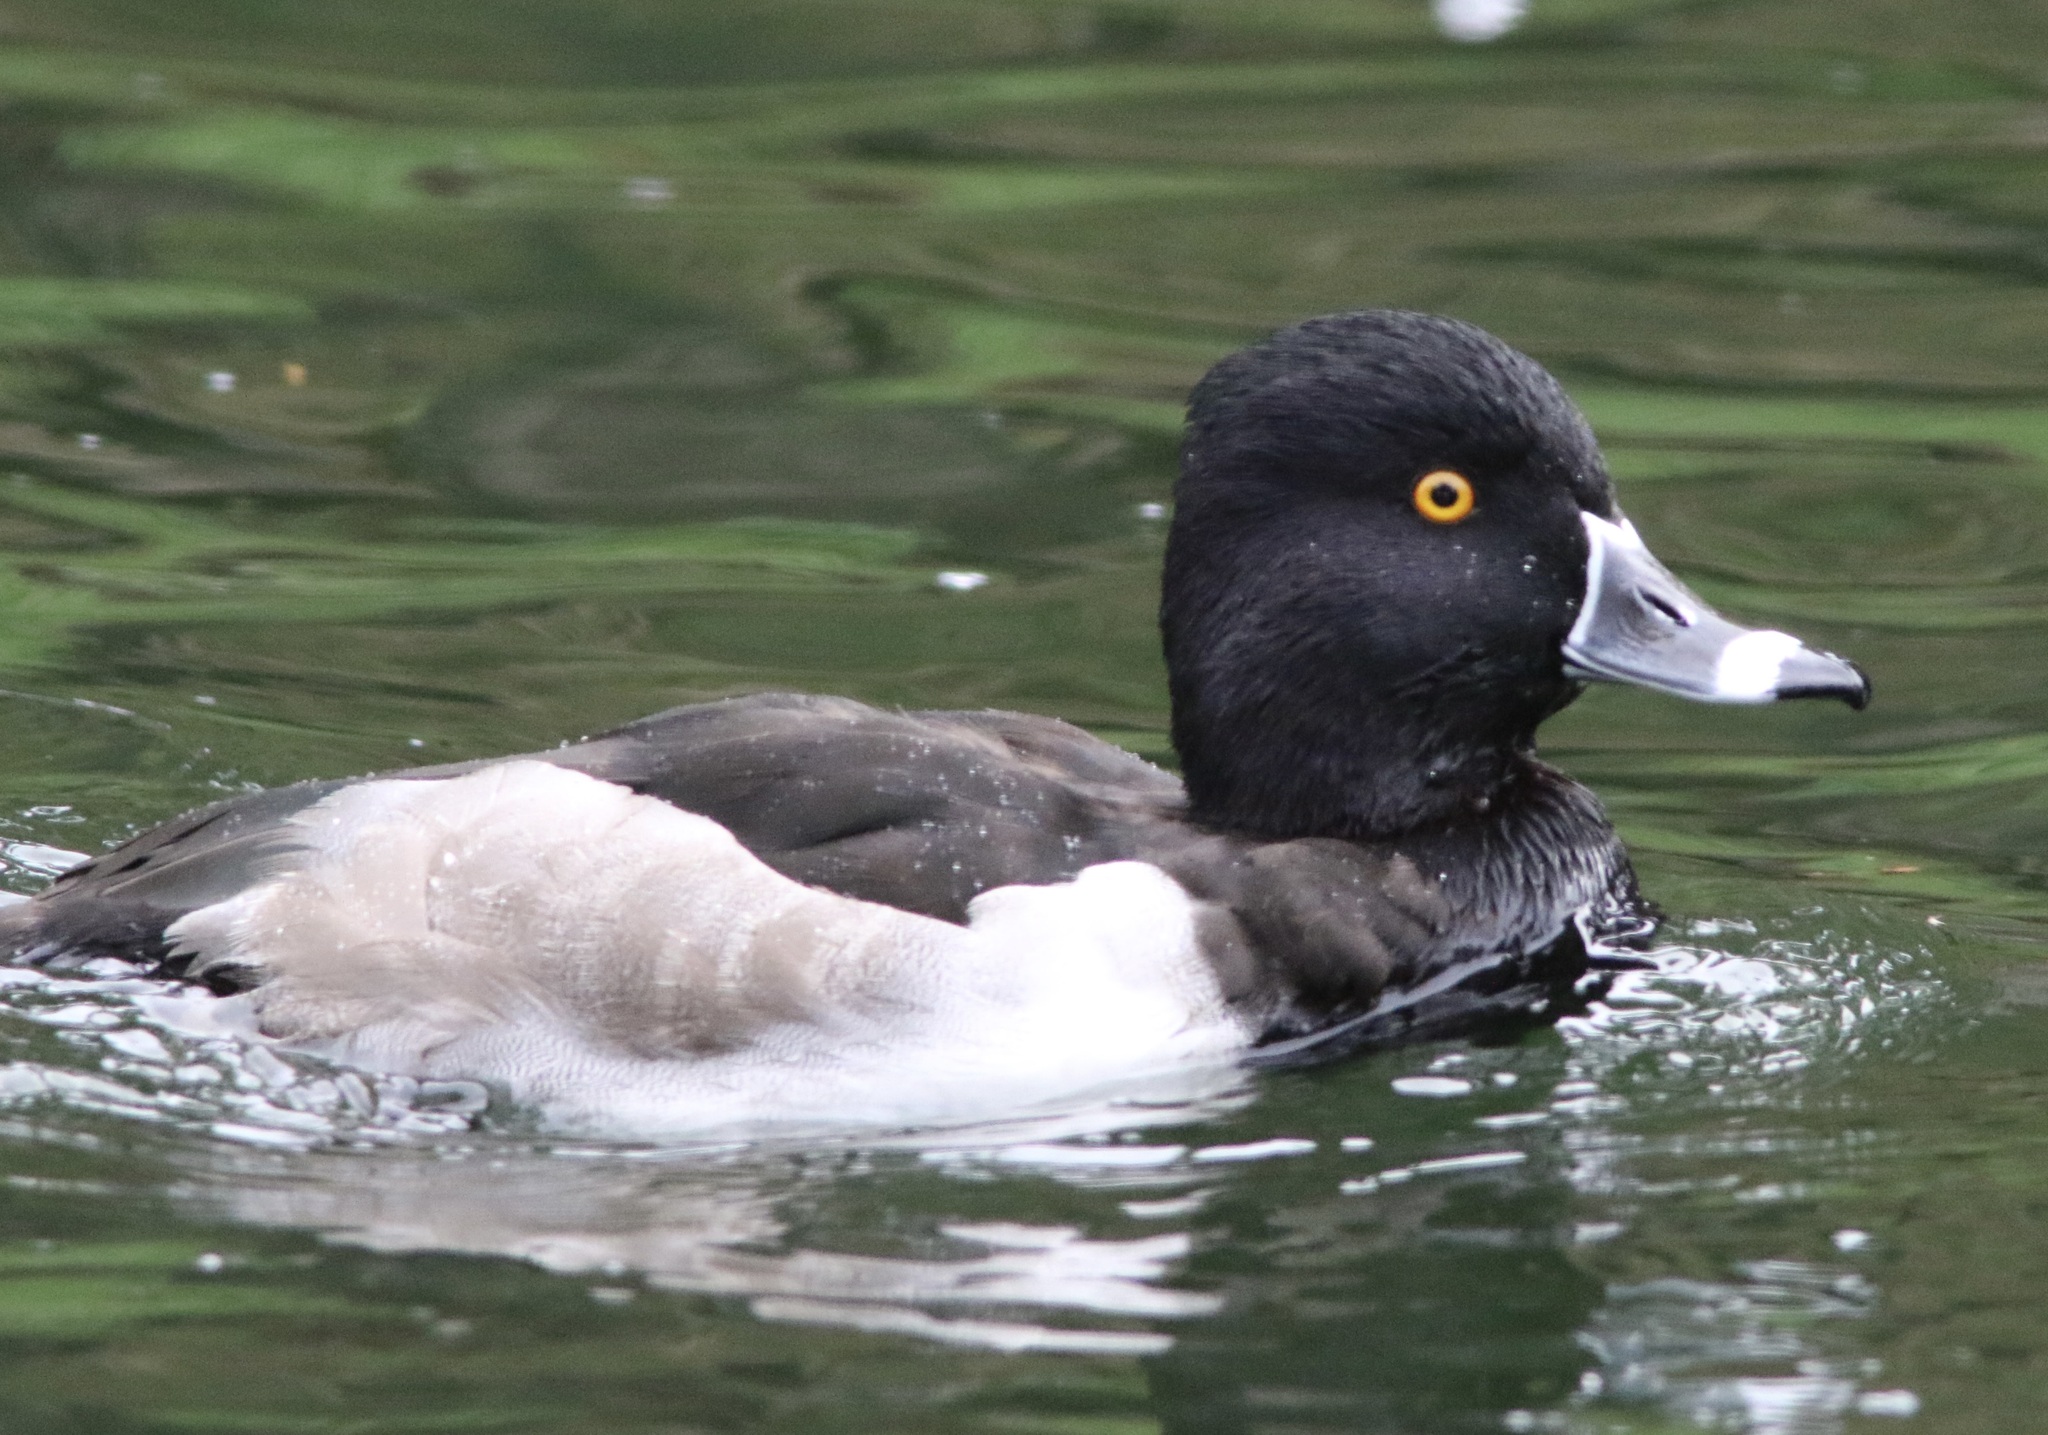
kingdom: Animalia
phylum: Chordata
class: Aves
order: Anseriformes
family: Anatidae
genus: Aythya
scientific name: Aythya collaris
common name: Ring-necked duck
